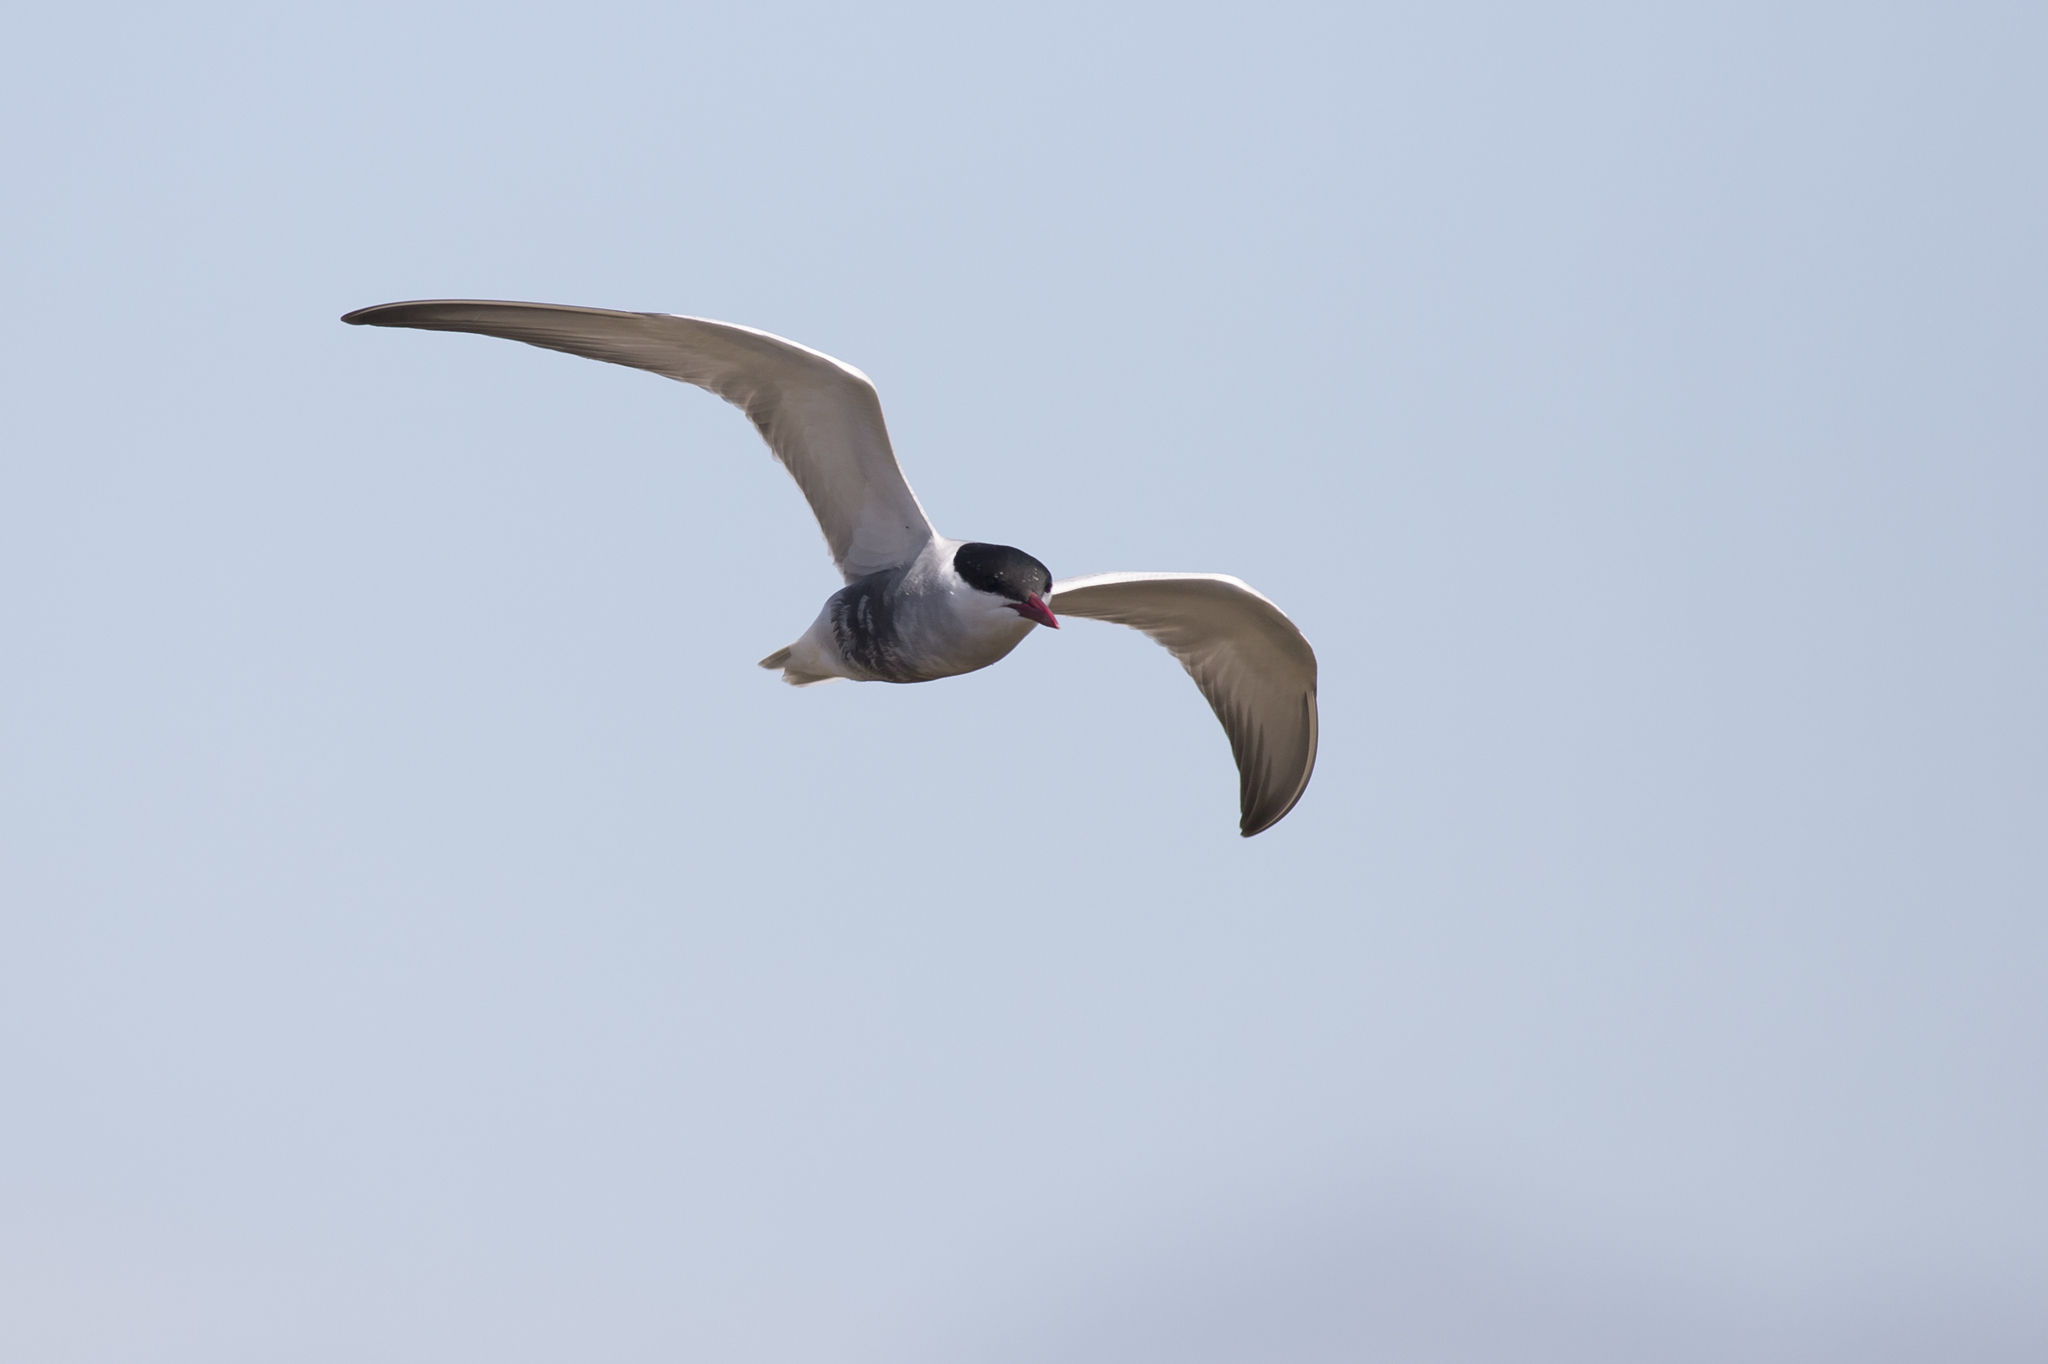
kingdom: Animalia
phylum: Chordata
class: Aves
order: Charadriiformes
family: Laridae
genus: Chlidonias
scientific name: Chlidonias hybrida
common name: Whiskered tern
